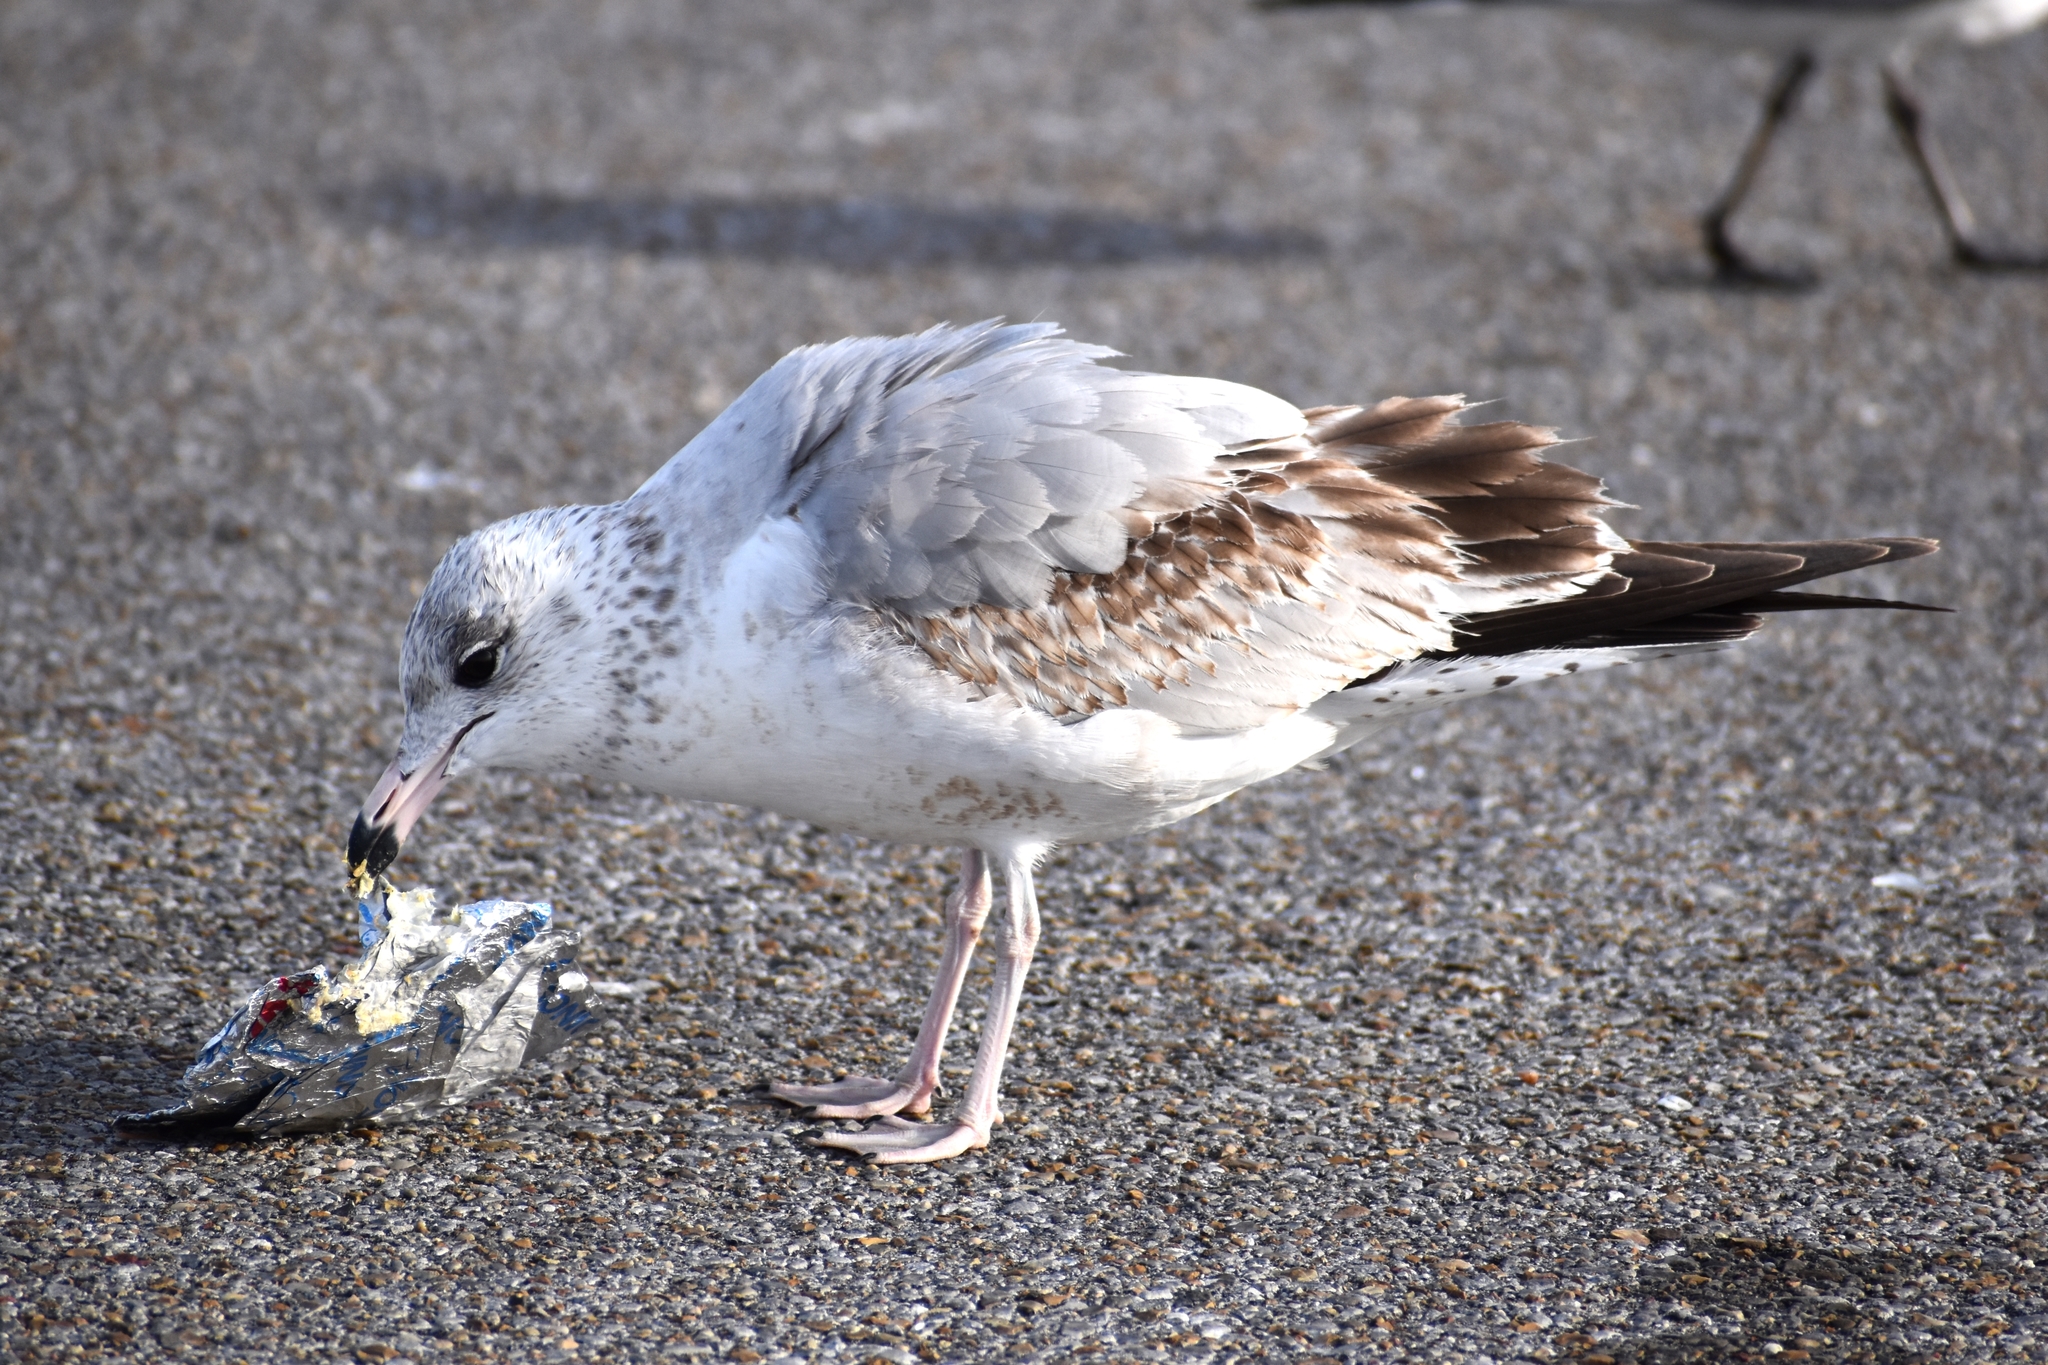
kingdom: Animalia
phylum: Chordata
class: Aves
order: Charadriiformes
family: Laridae
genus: Larus
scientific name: Larus delawarensis
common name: Ring-billed gull
